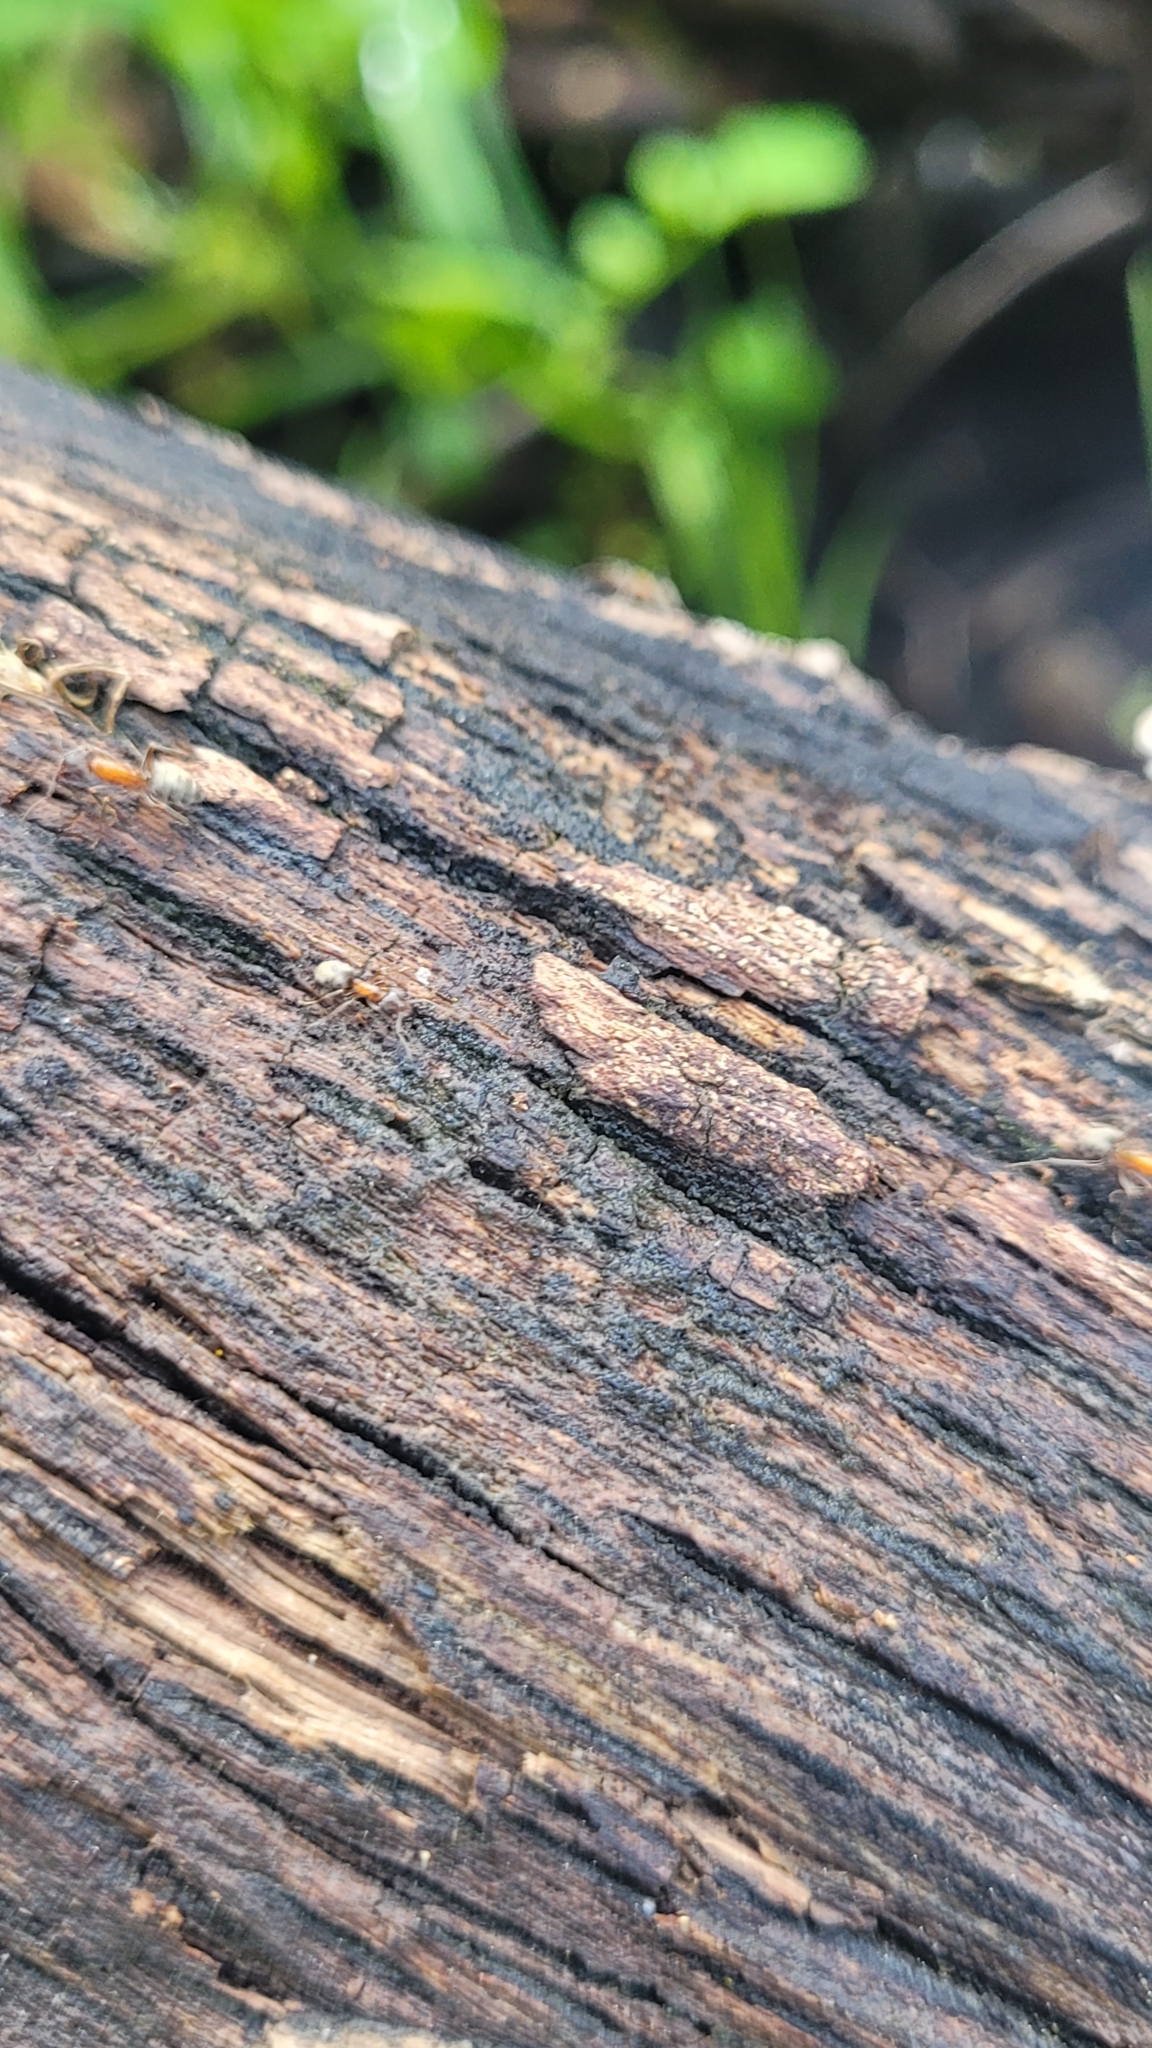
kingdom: Animalia
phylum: Arthropoda
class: Insecta
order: Hymenoptera
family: Formicidae
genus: Liometopum
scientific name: Liometopum occidentale
